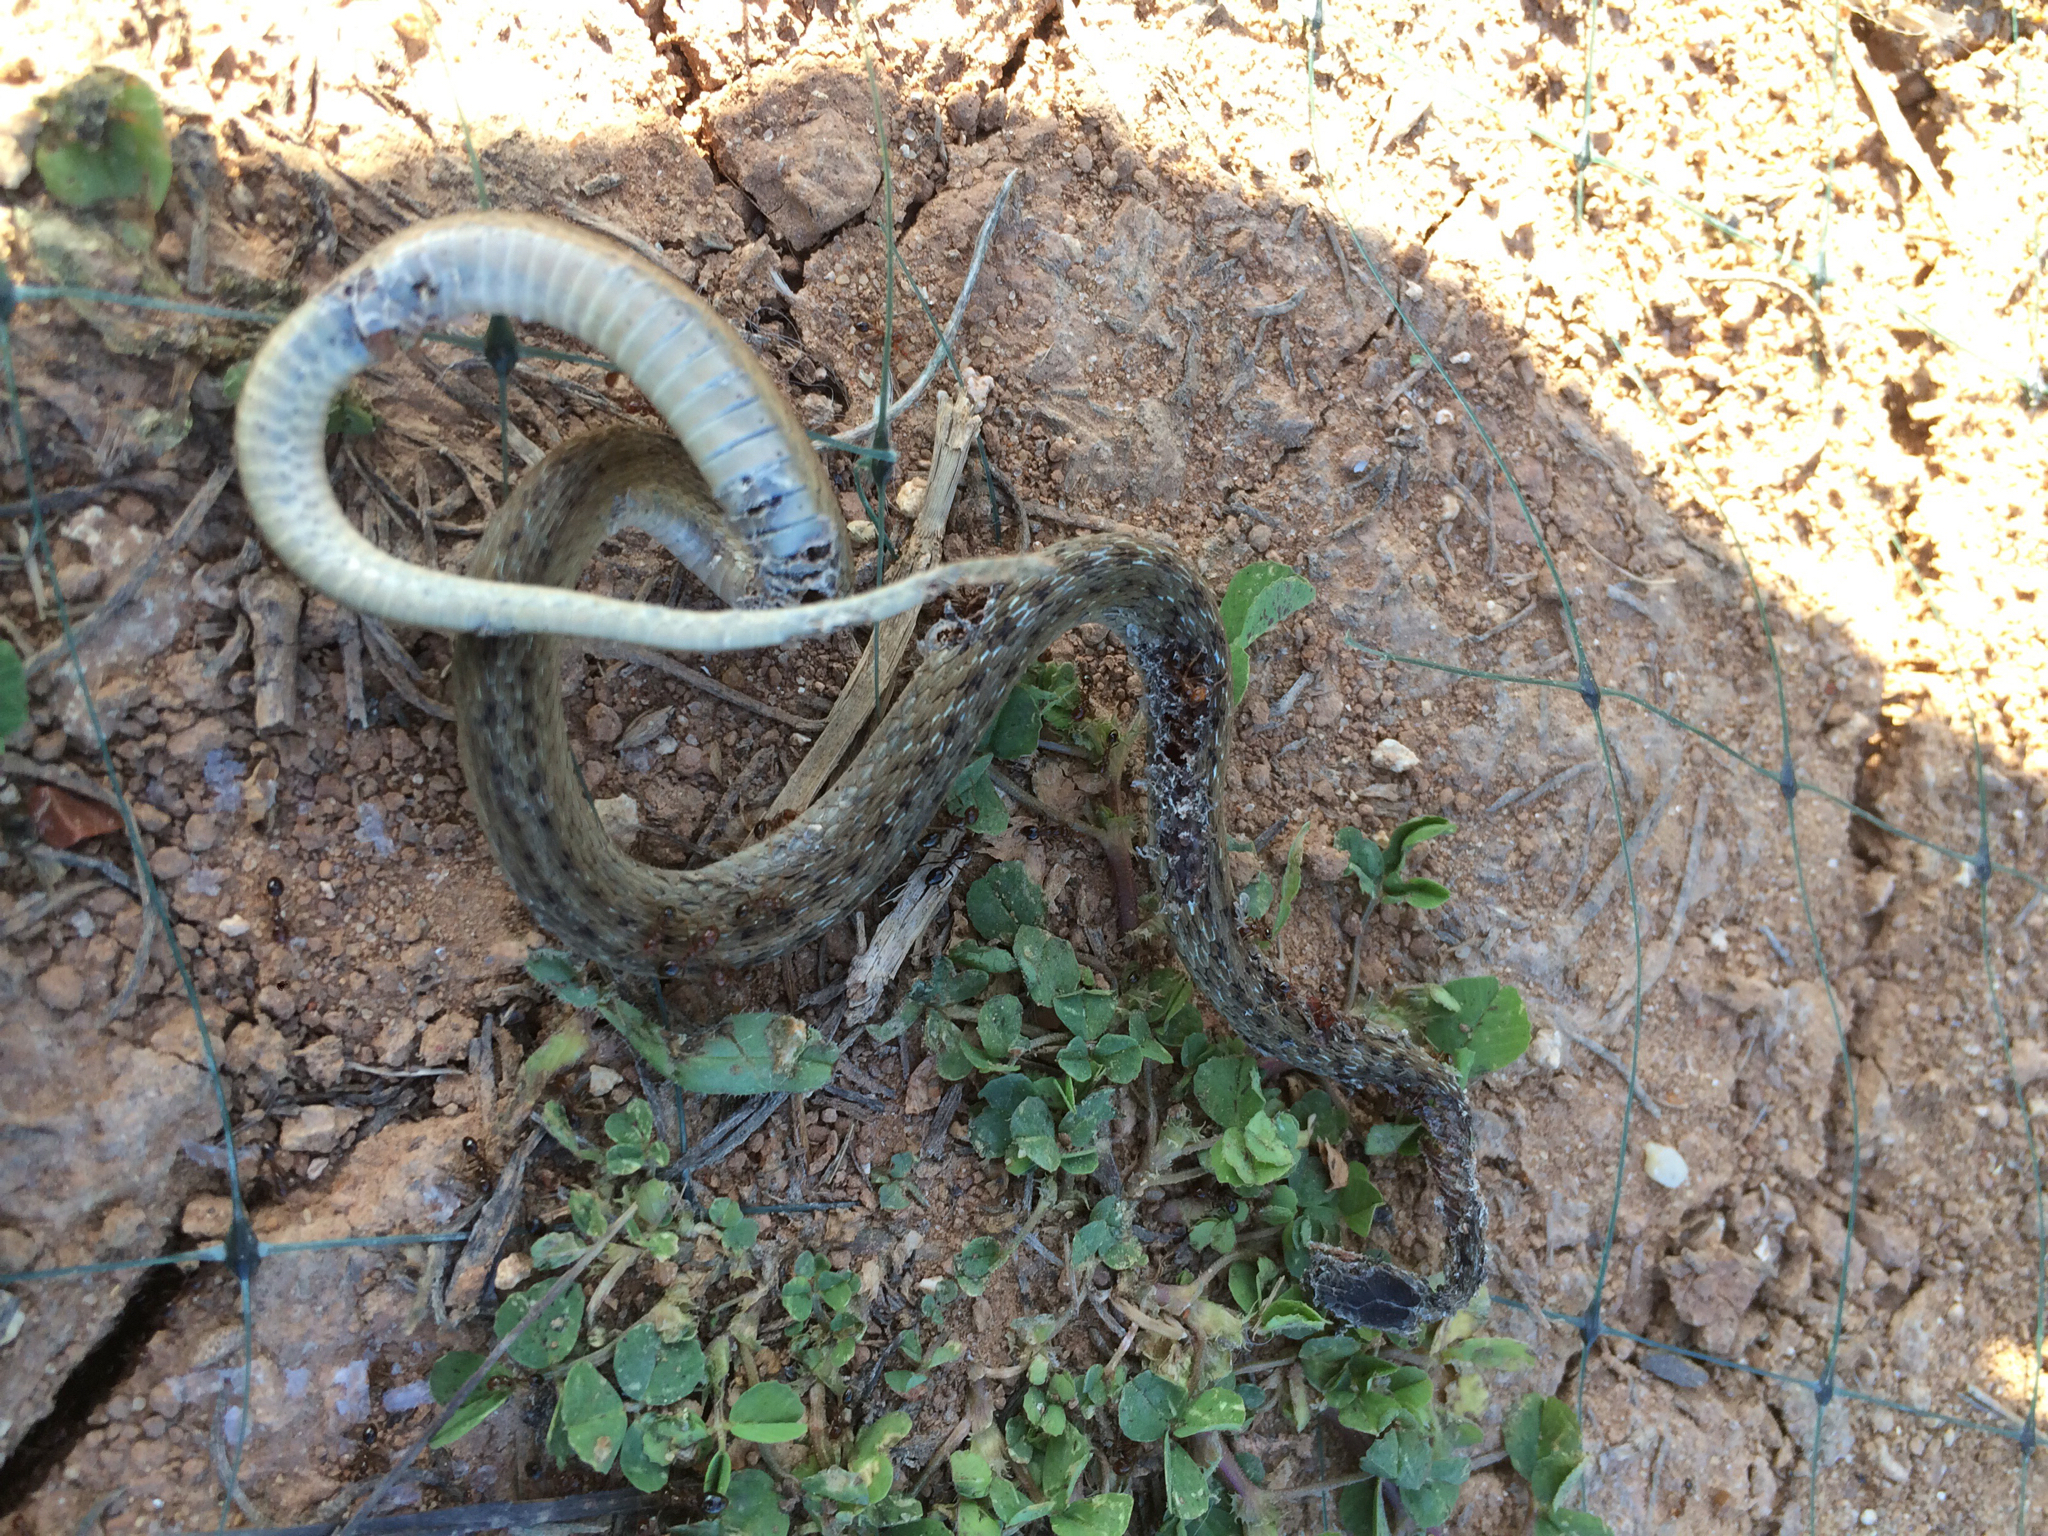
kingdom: Animalia
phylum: Chordata
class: Squamata
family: Colubridae
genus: Storeria
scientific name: Storeria dekayi
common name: (dekay’s) brown snake
